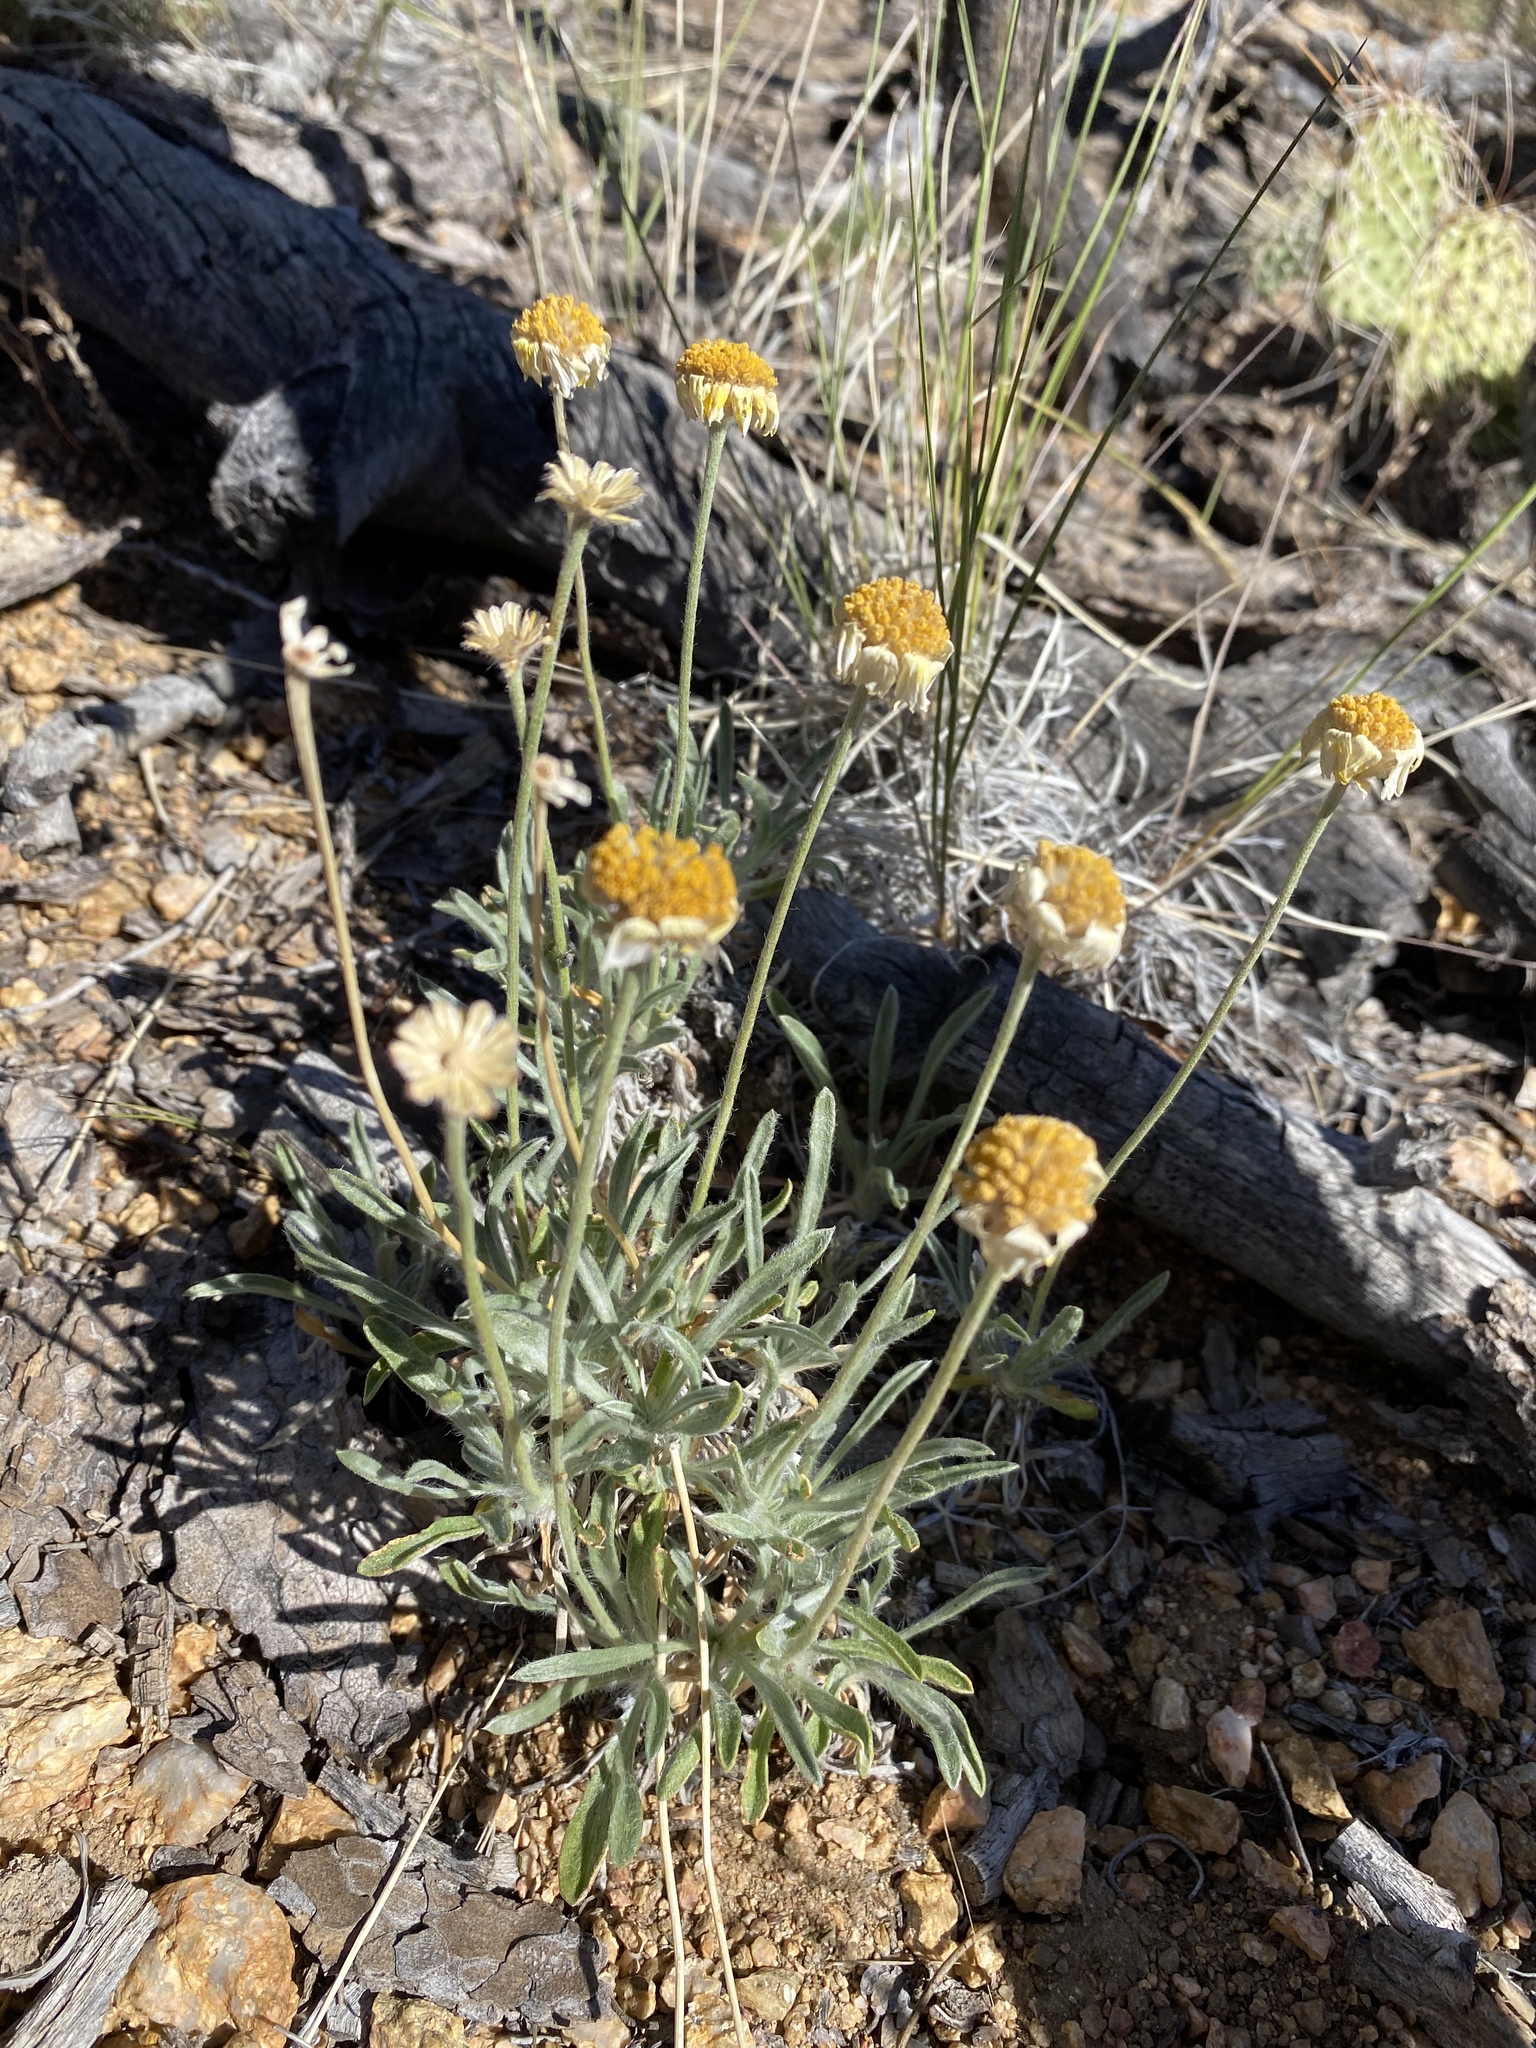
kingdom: Plantae
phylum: Tracheophyta
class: Magnoliopsida
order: Asterales
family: Asteraceae
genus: Tetraneuris
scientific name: Tetraneuris acaulis
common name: Butte marigold
